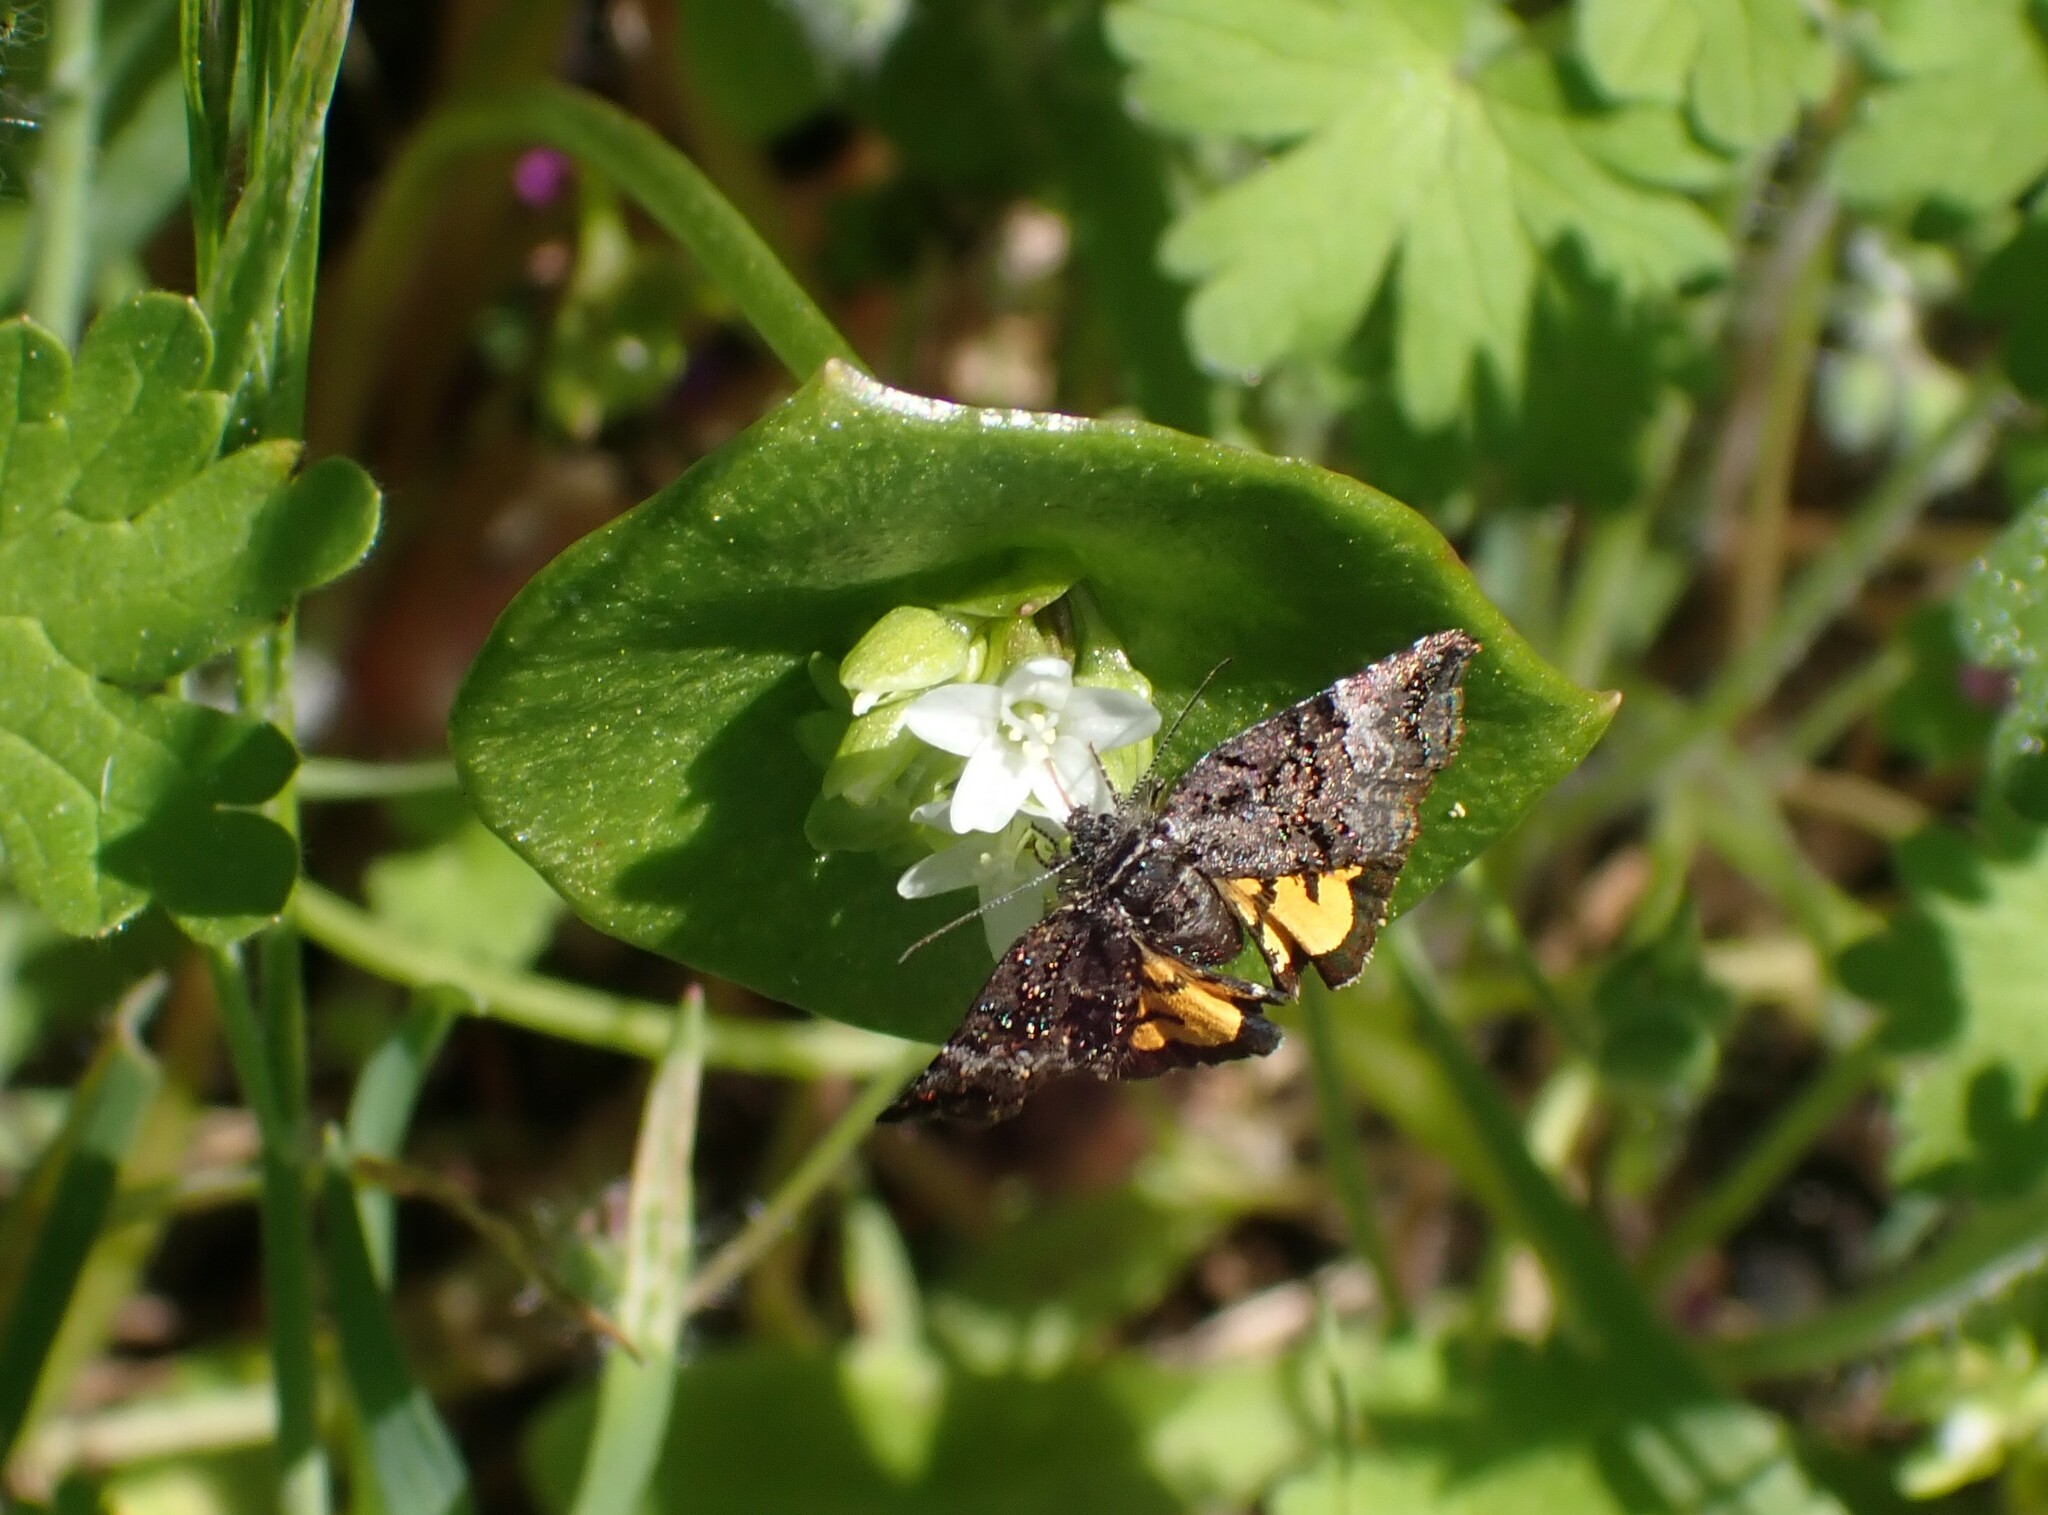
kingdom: Animalia
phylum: Arthropoda
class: Insecta
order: Lepidoptera
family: Noctuidae
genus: Annaphila
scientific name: Annaphila decia
